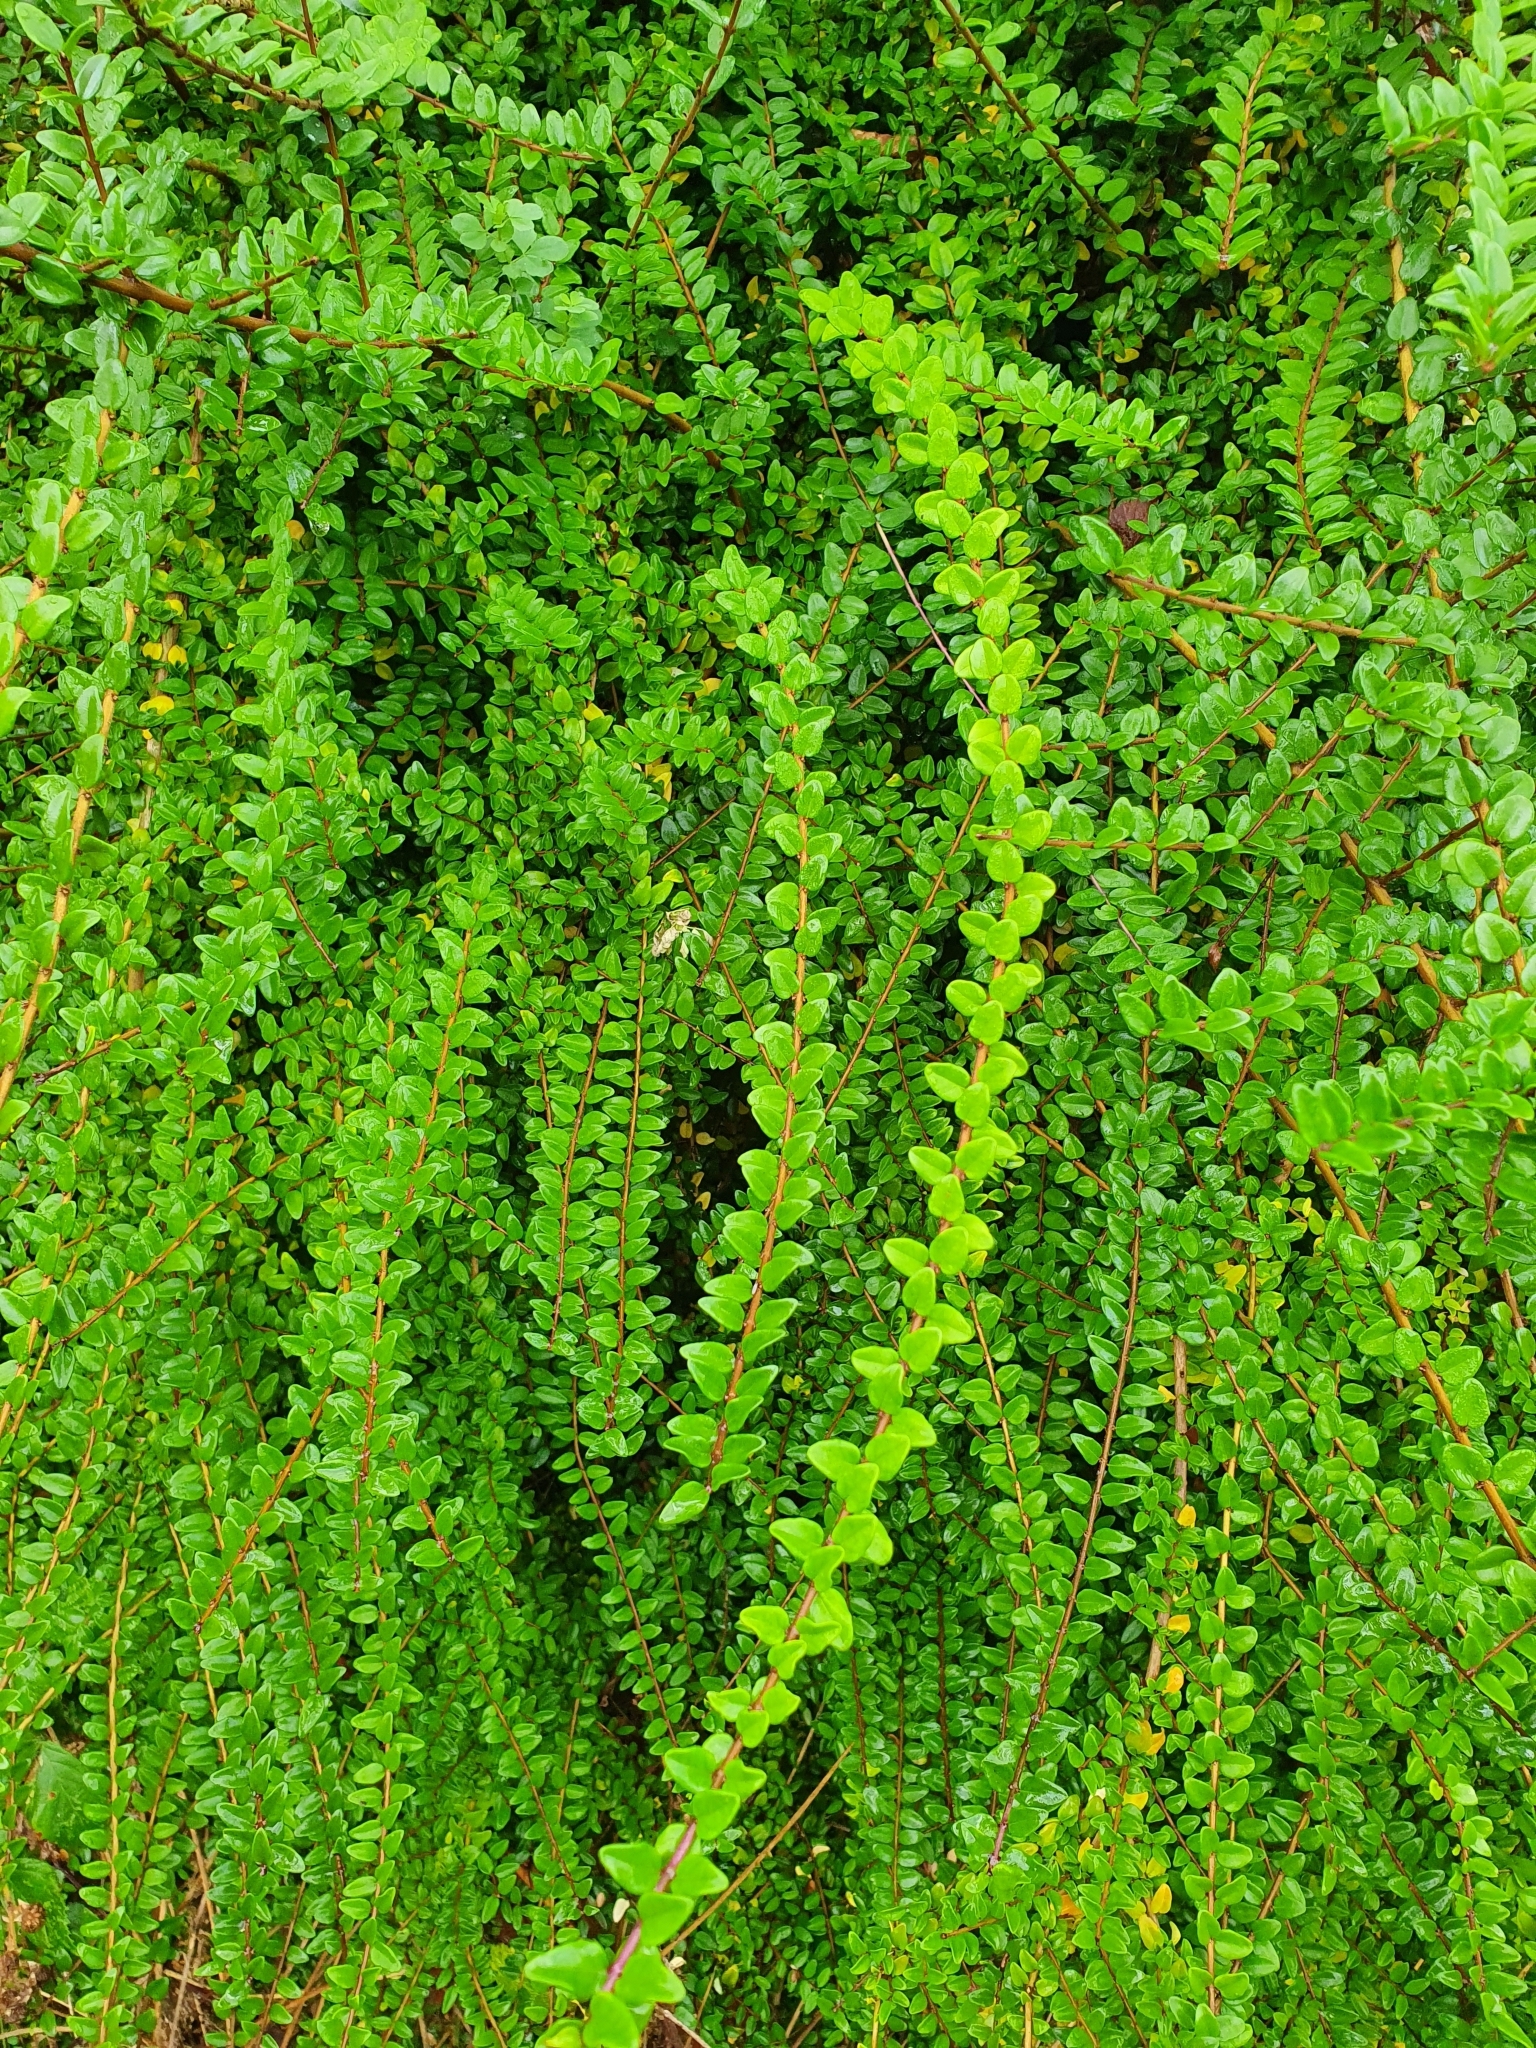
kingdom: Plantae
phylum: Tracheophyta
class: Magnoliopsida
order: Dipsacales
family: Caprifoliaceae
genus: Lonicera
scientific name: Lonicera pileata
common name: Box-leaved honeysuckle
